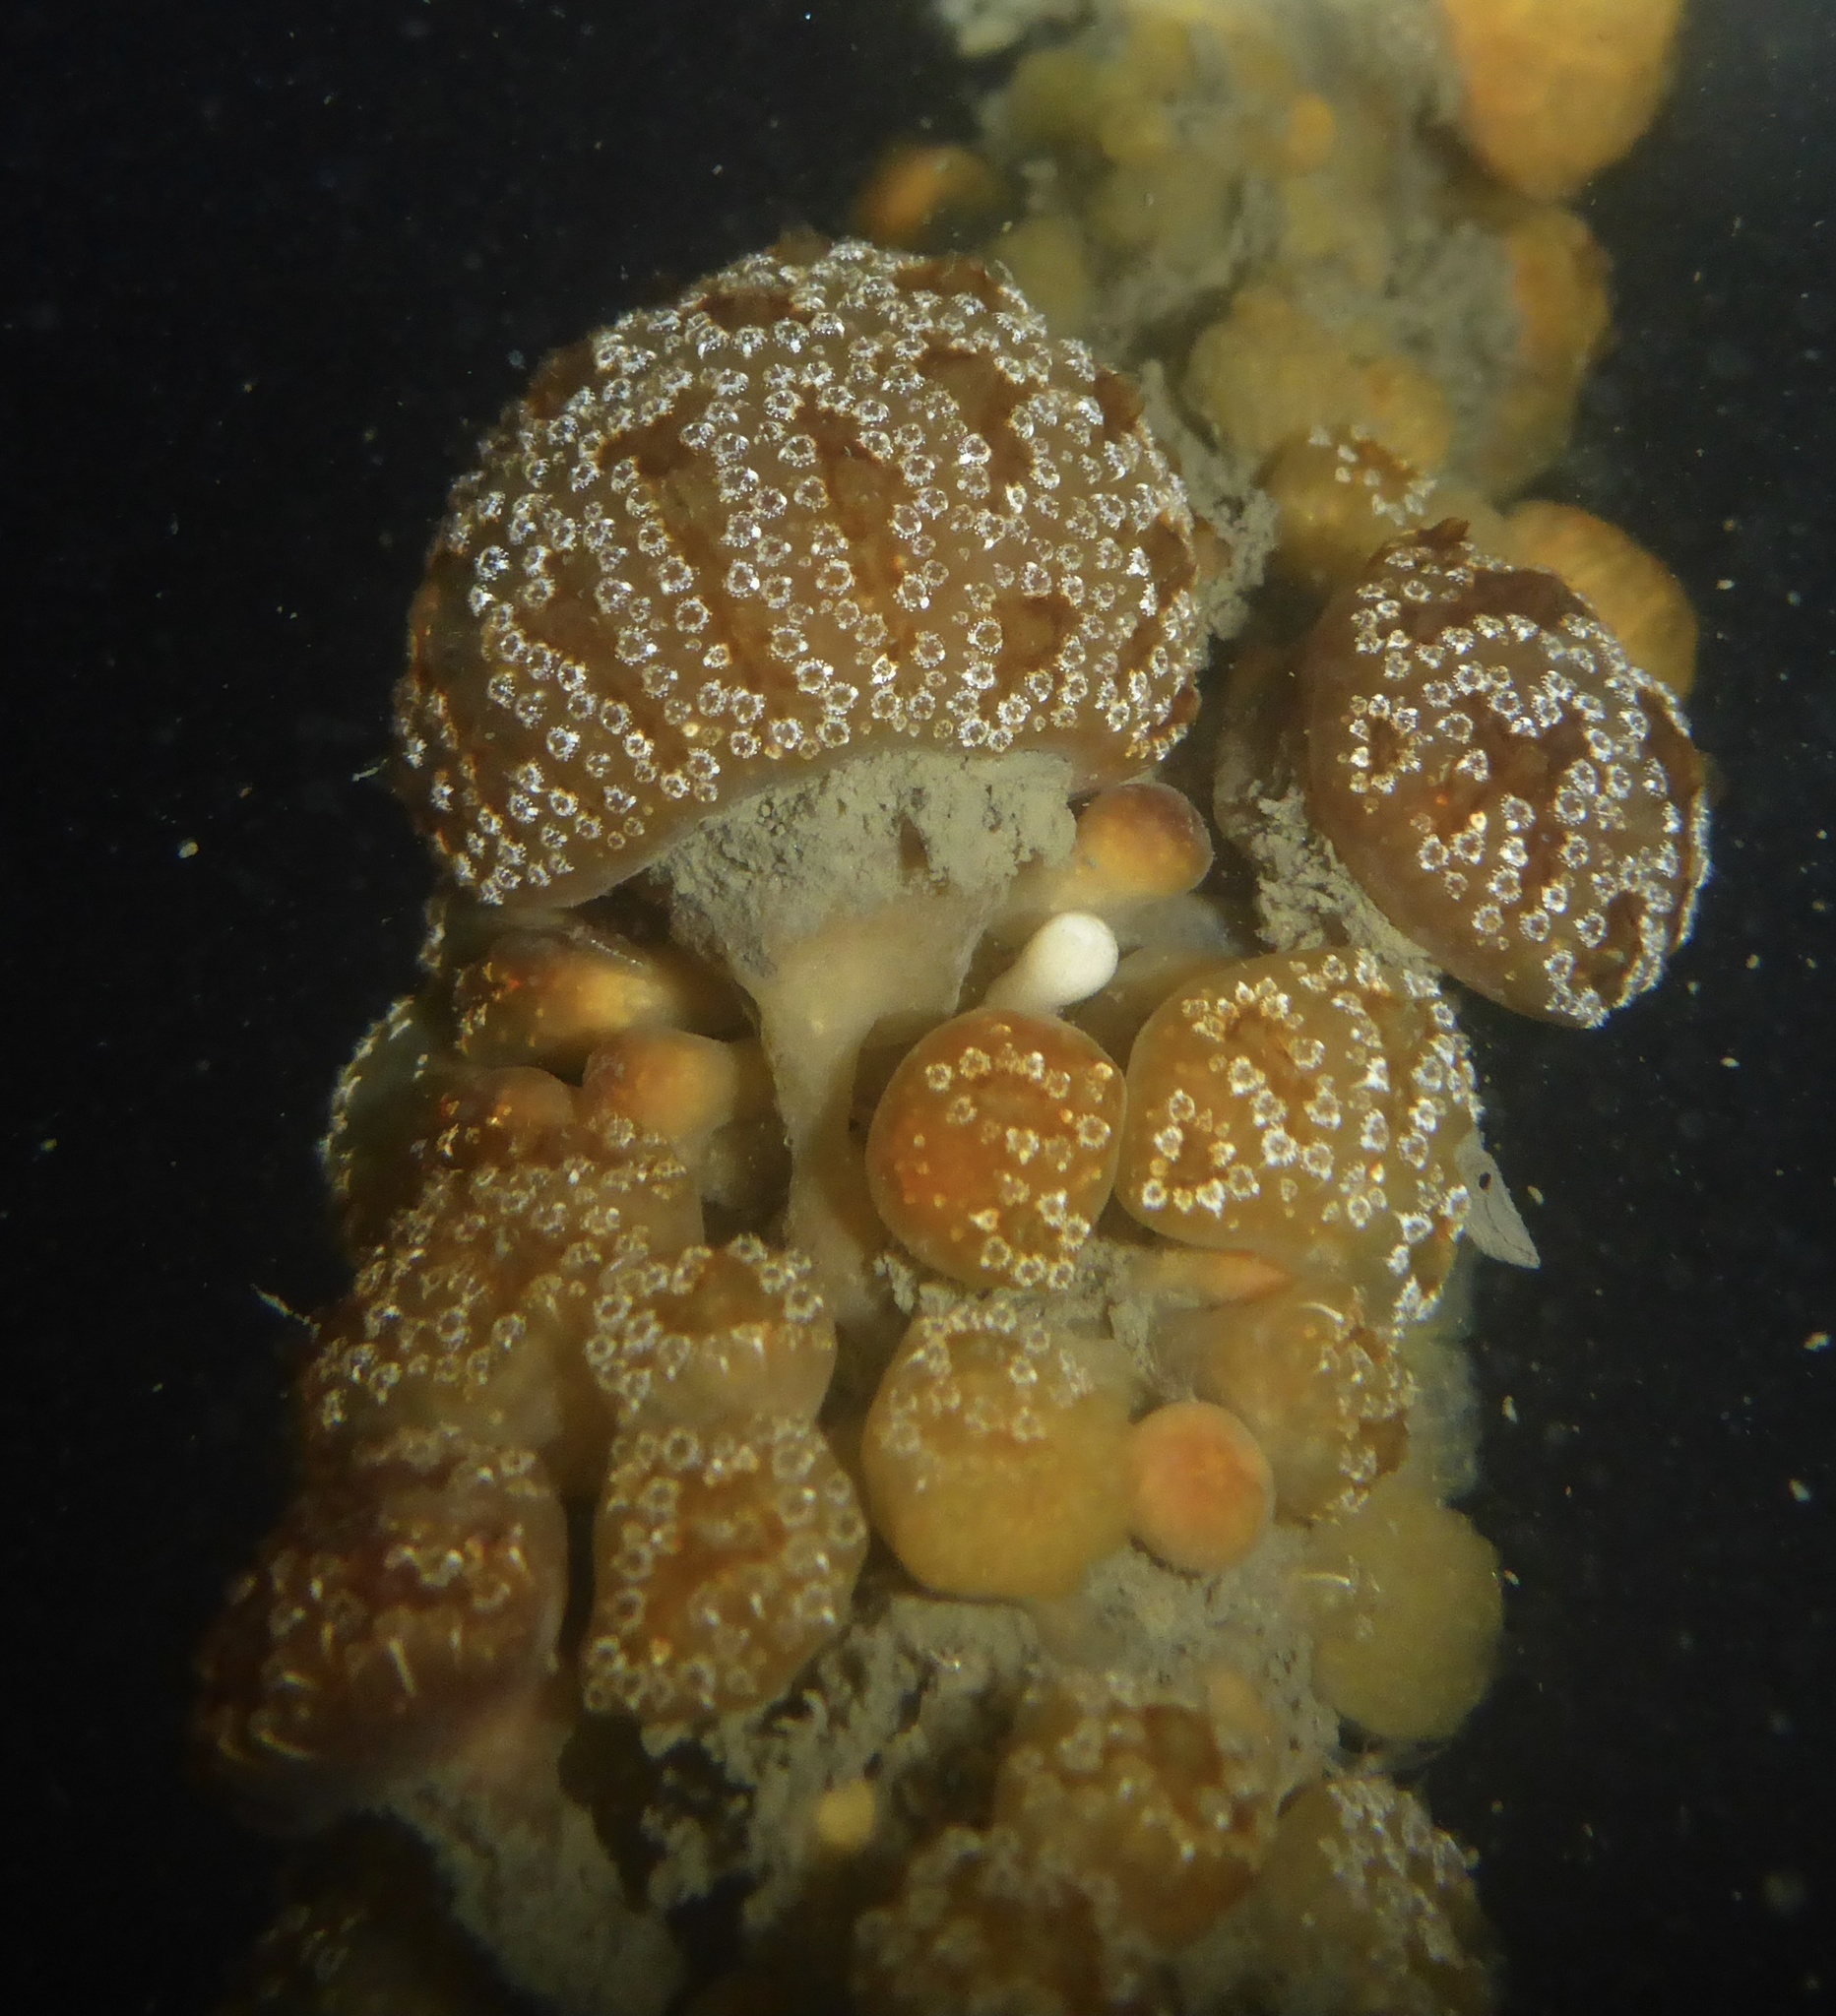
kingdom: Animalia
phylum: Chordata
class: Ascidiacea
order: Aplousobranchia
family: Holozoidae
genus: Distaplia
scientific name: Distaplia occidentalis
